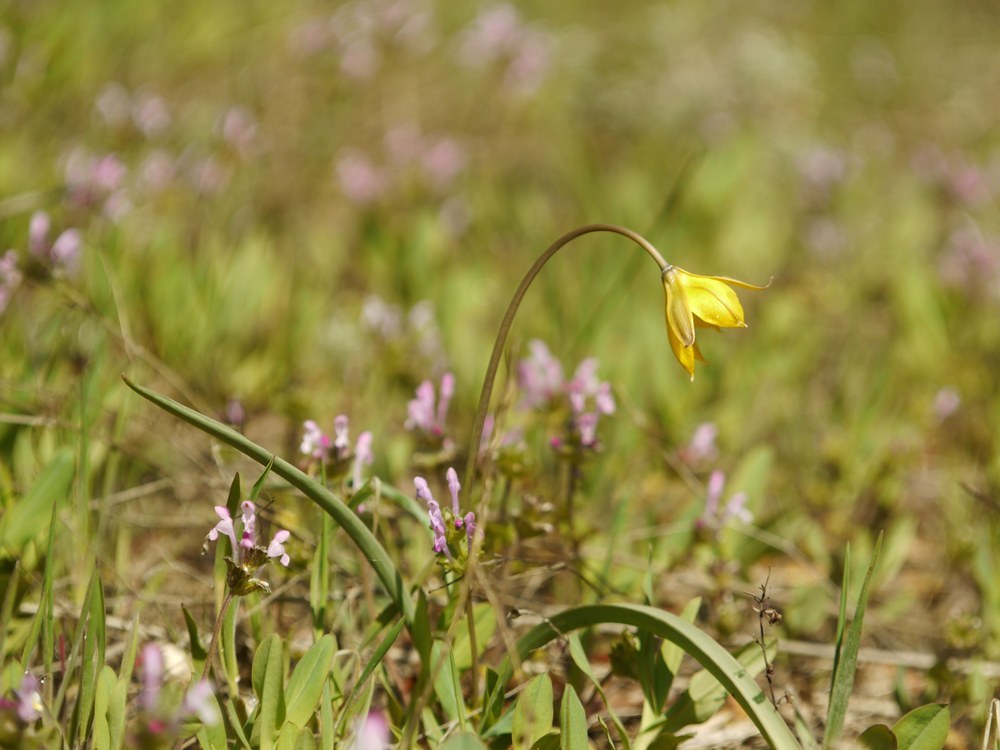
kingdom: Plantae
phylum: Tracheophyta
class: Liliopsida
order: Liliales
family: Liliaceae
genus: Tulipa
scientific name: Tulipa sylvestris
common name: Wild tulip
